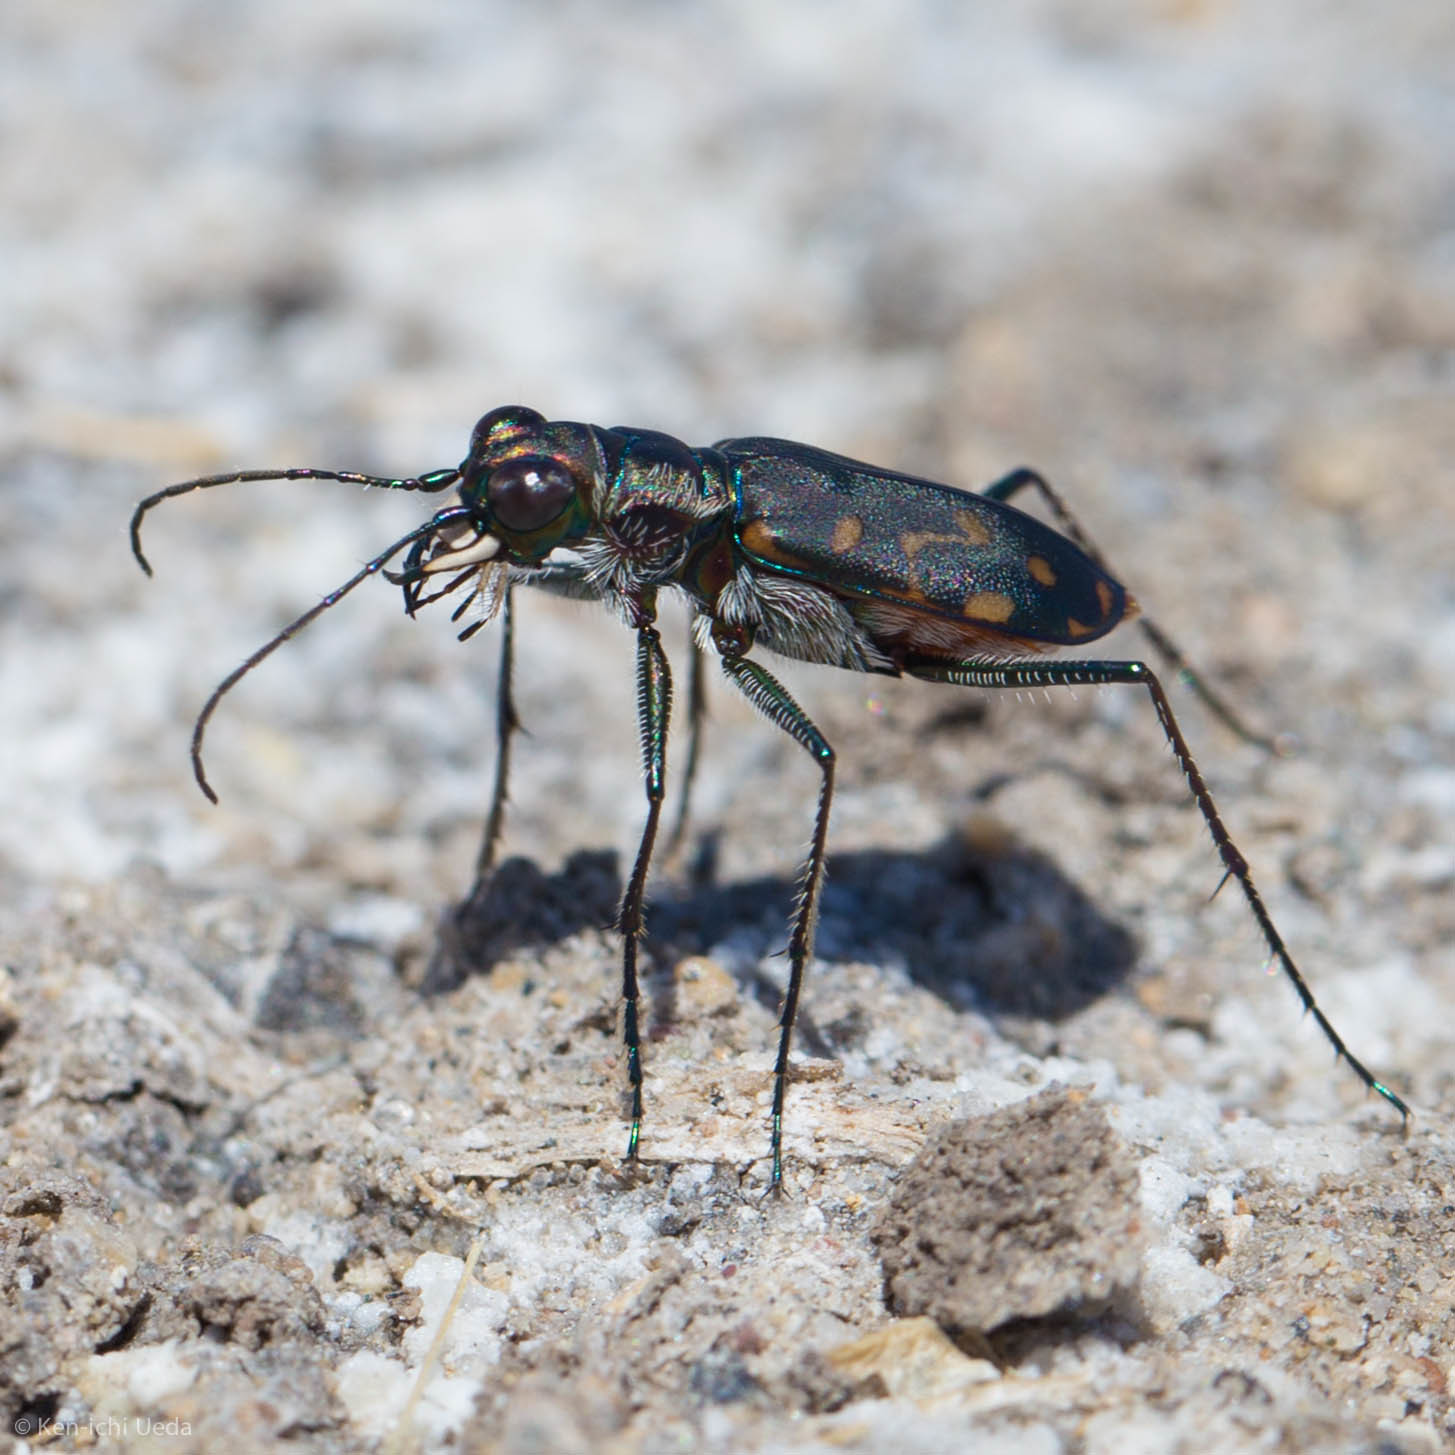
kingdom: Animalia
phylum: Arthropoda
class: Insecta
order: Coleoptera
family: Carabidae
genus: Cicindela
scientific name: Cicindela hemorrhagica
